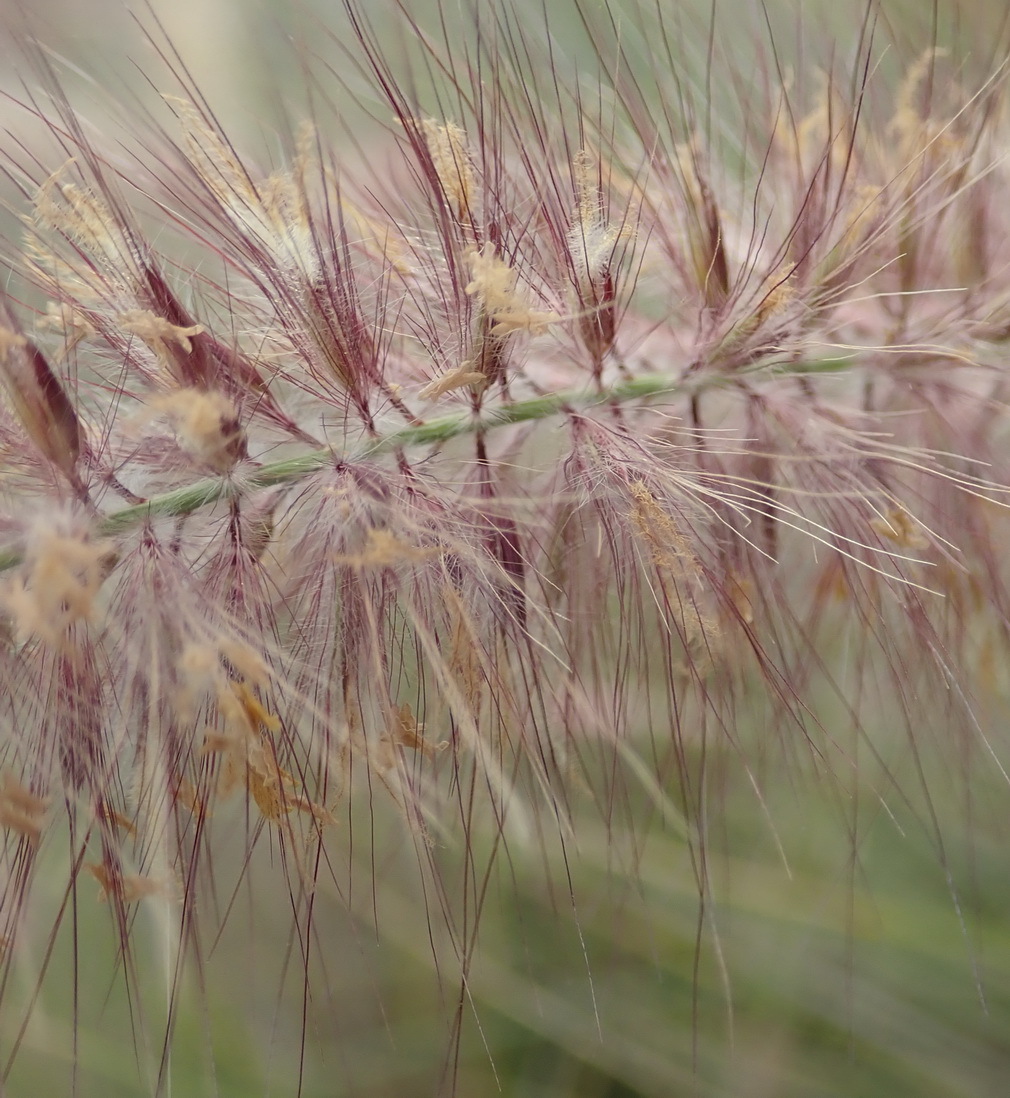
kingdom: Plantae
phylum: Tracheophyta
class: Liliopsida
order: Poales
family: Poaceae
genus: Cenchrus
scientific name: Cenchrus setaceus
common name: Crimson fountaingrass
